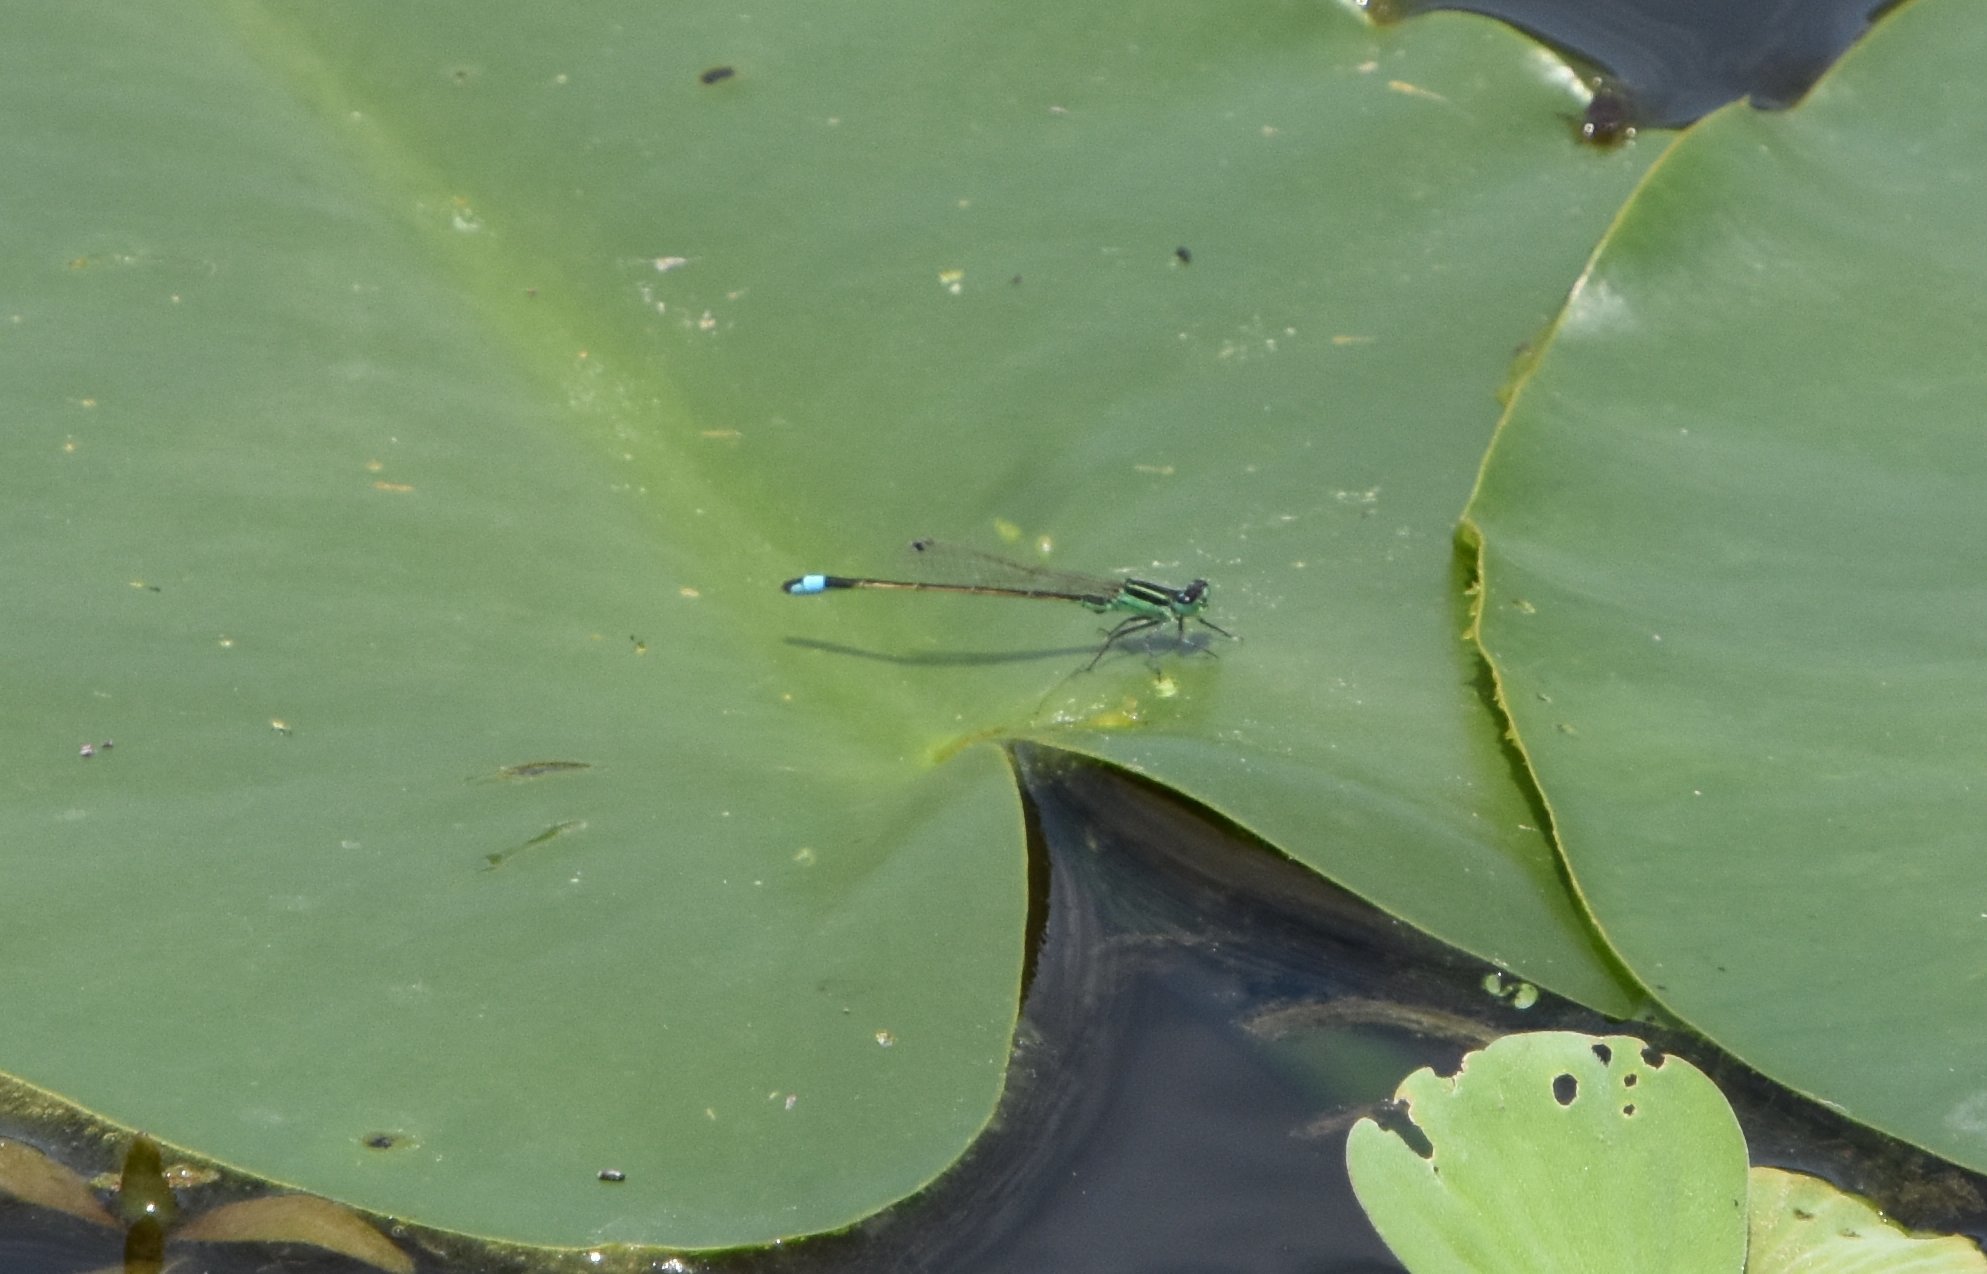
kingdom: Animalia
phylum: Arthropoda
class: Insecta
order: Odonata
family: Coenagrionidae
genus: Ischnura
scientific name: Ischnura ramburii
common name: Rambur's forktail
